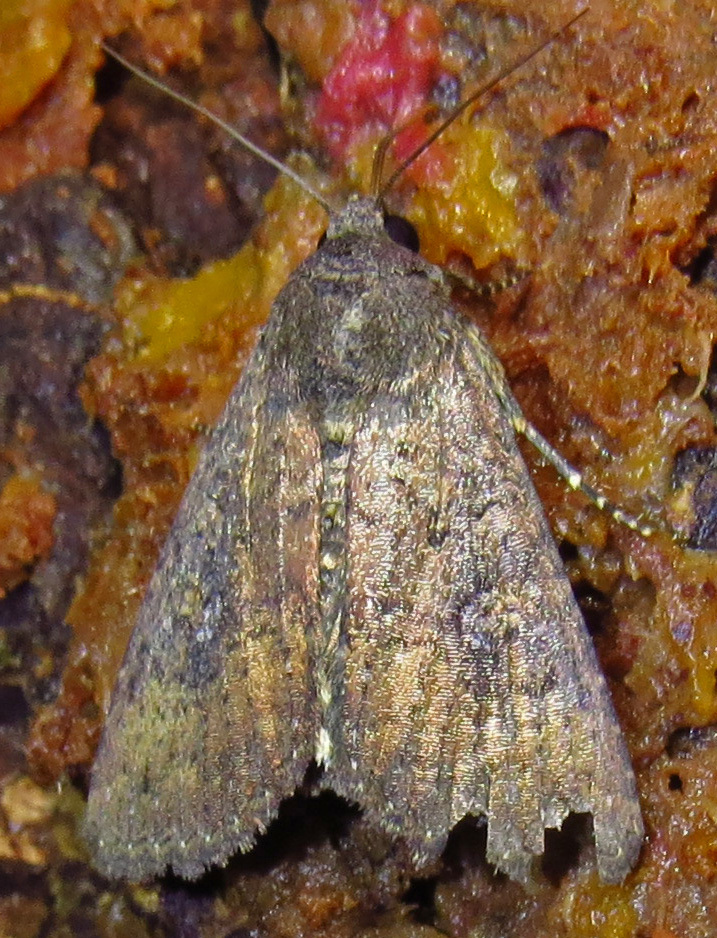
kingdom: Animalia
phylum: Arthropoda
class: Insecta
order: Lepidoptera
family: Noctuidae
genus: Condica
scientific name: Condica sutor
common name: Cobbler moth
